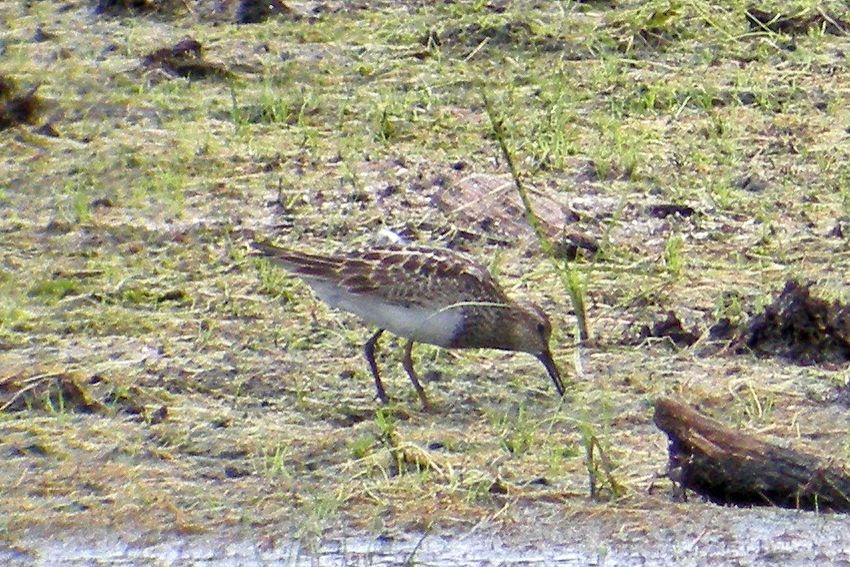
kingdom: Animalia
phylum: Chordata
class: Aves
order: Charadriiformes
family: Scolopacidae
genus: Calidris
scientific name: Calidris melanotos
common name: Pectoral sandpiper
